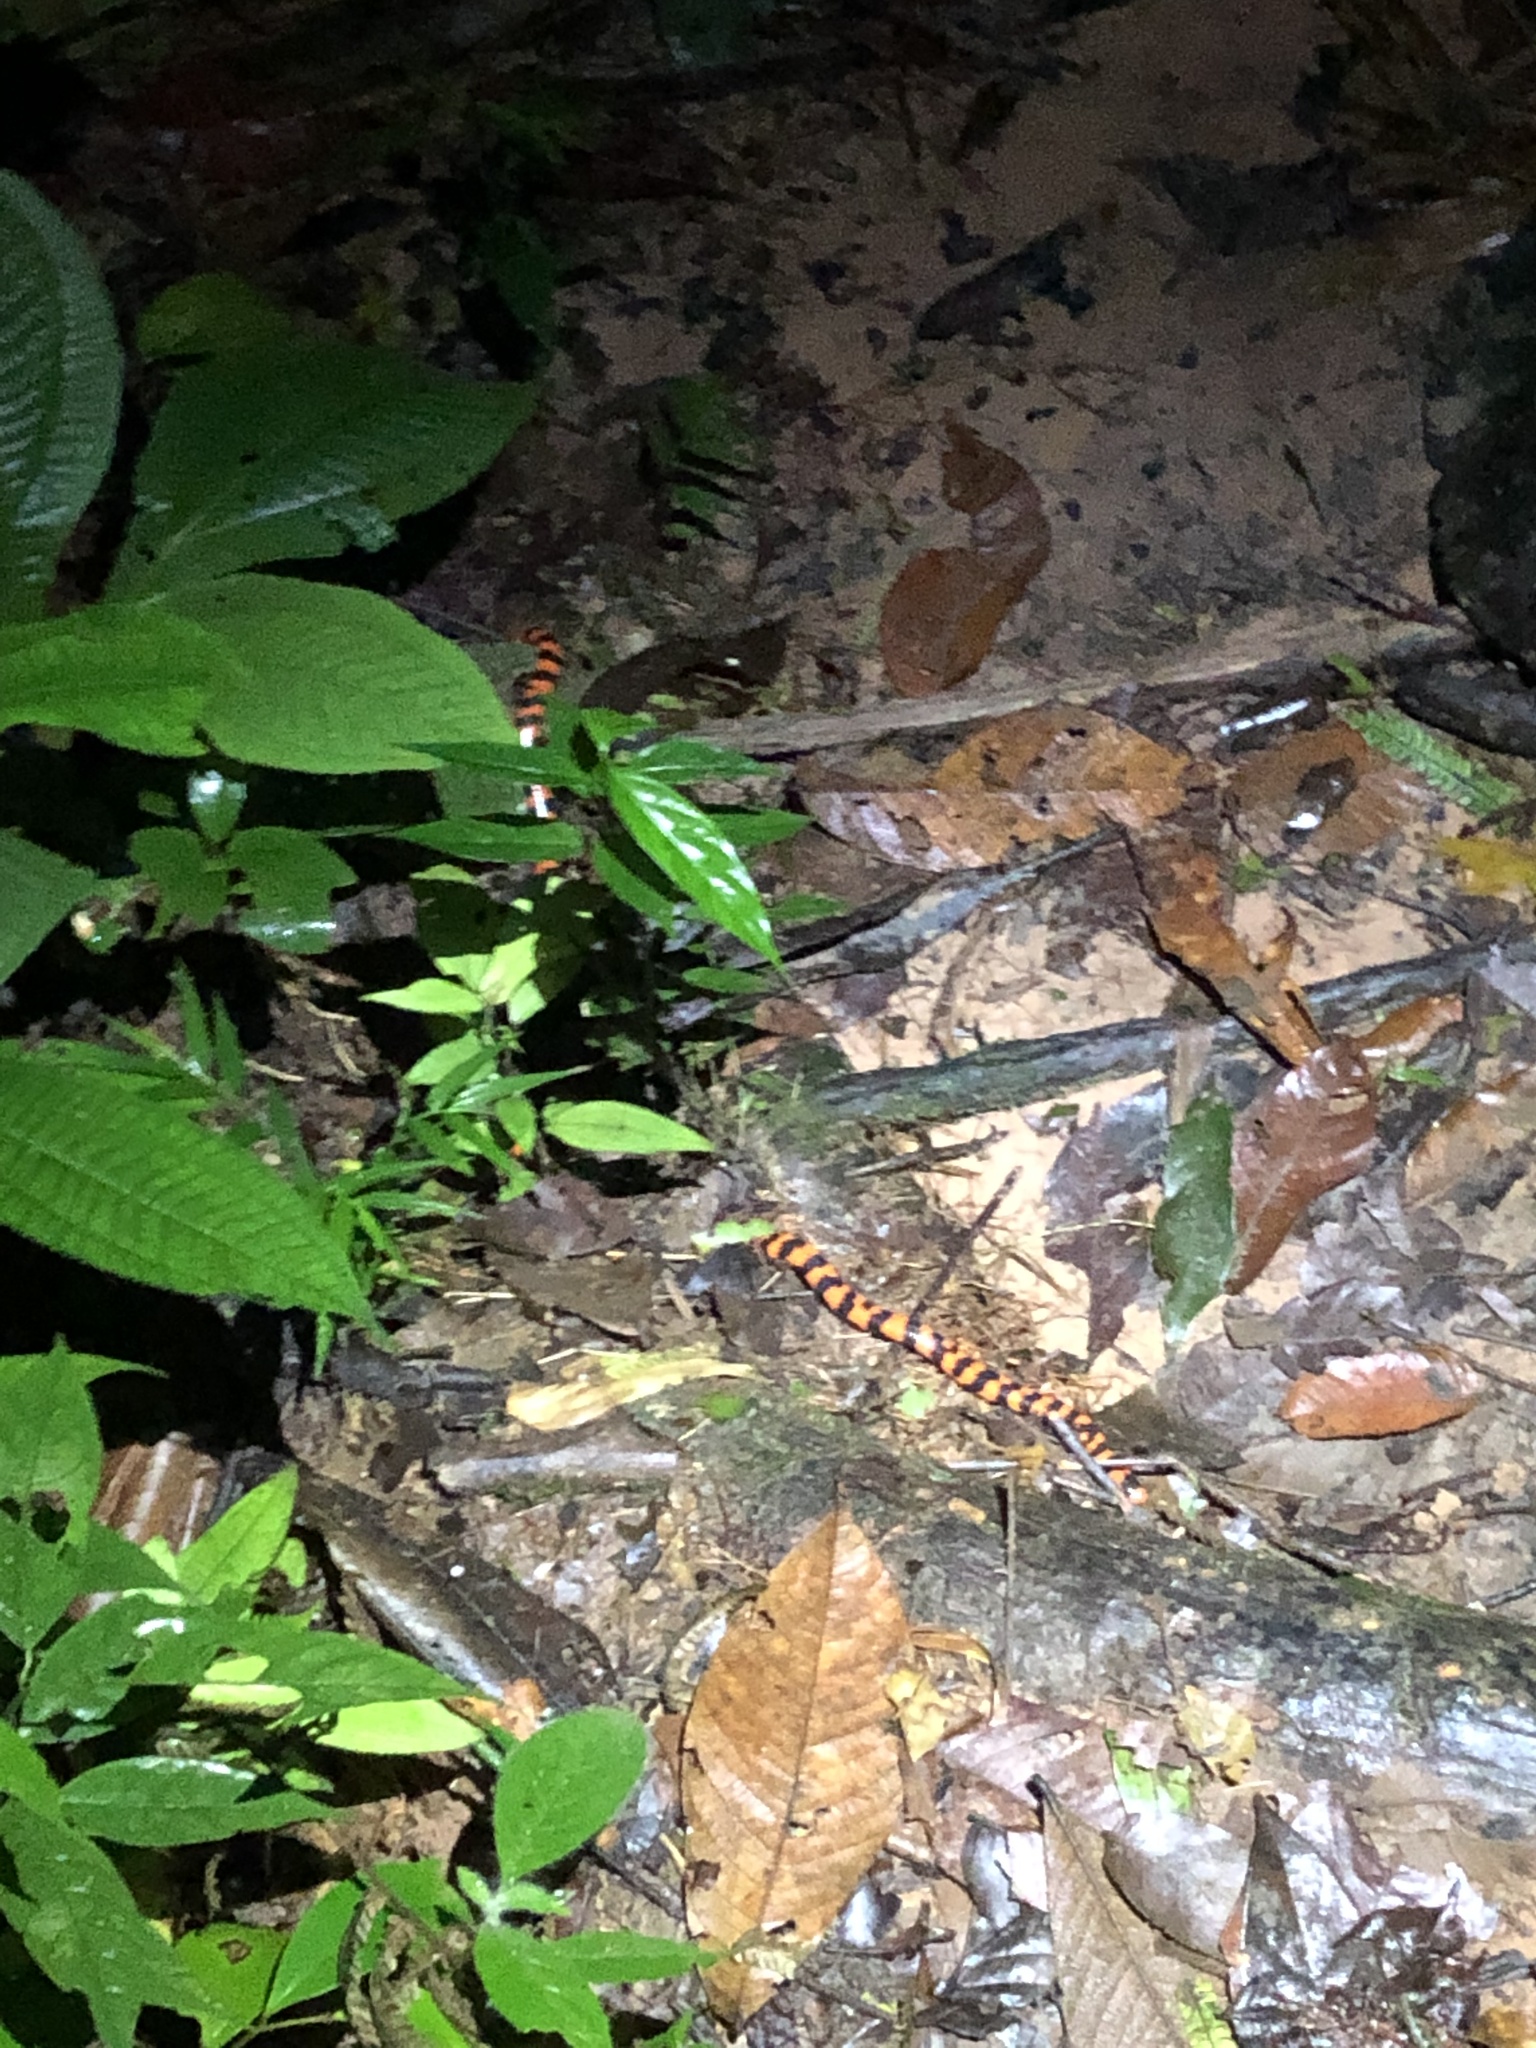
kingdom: Animalia
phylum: Chordata
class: Squamata
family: Aniliidae
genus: Anilius
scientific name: Anilius scytale
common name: Coral pipe snakes
